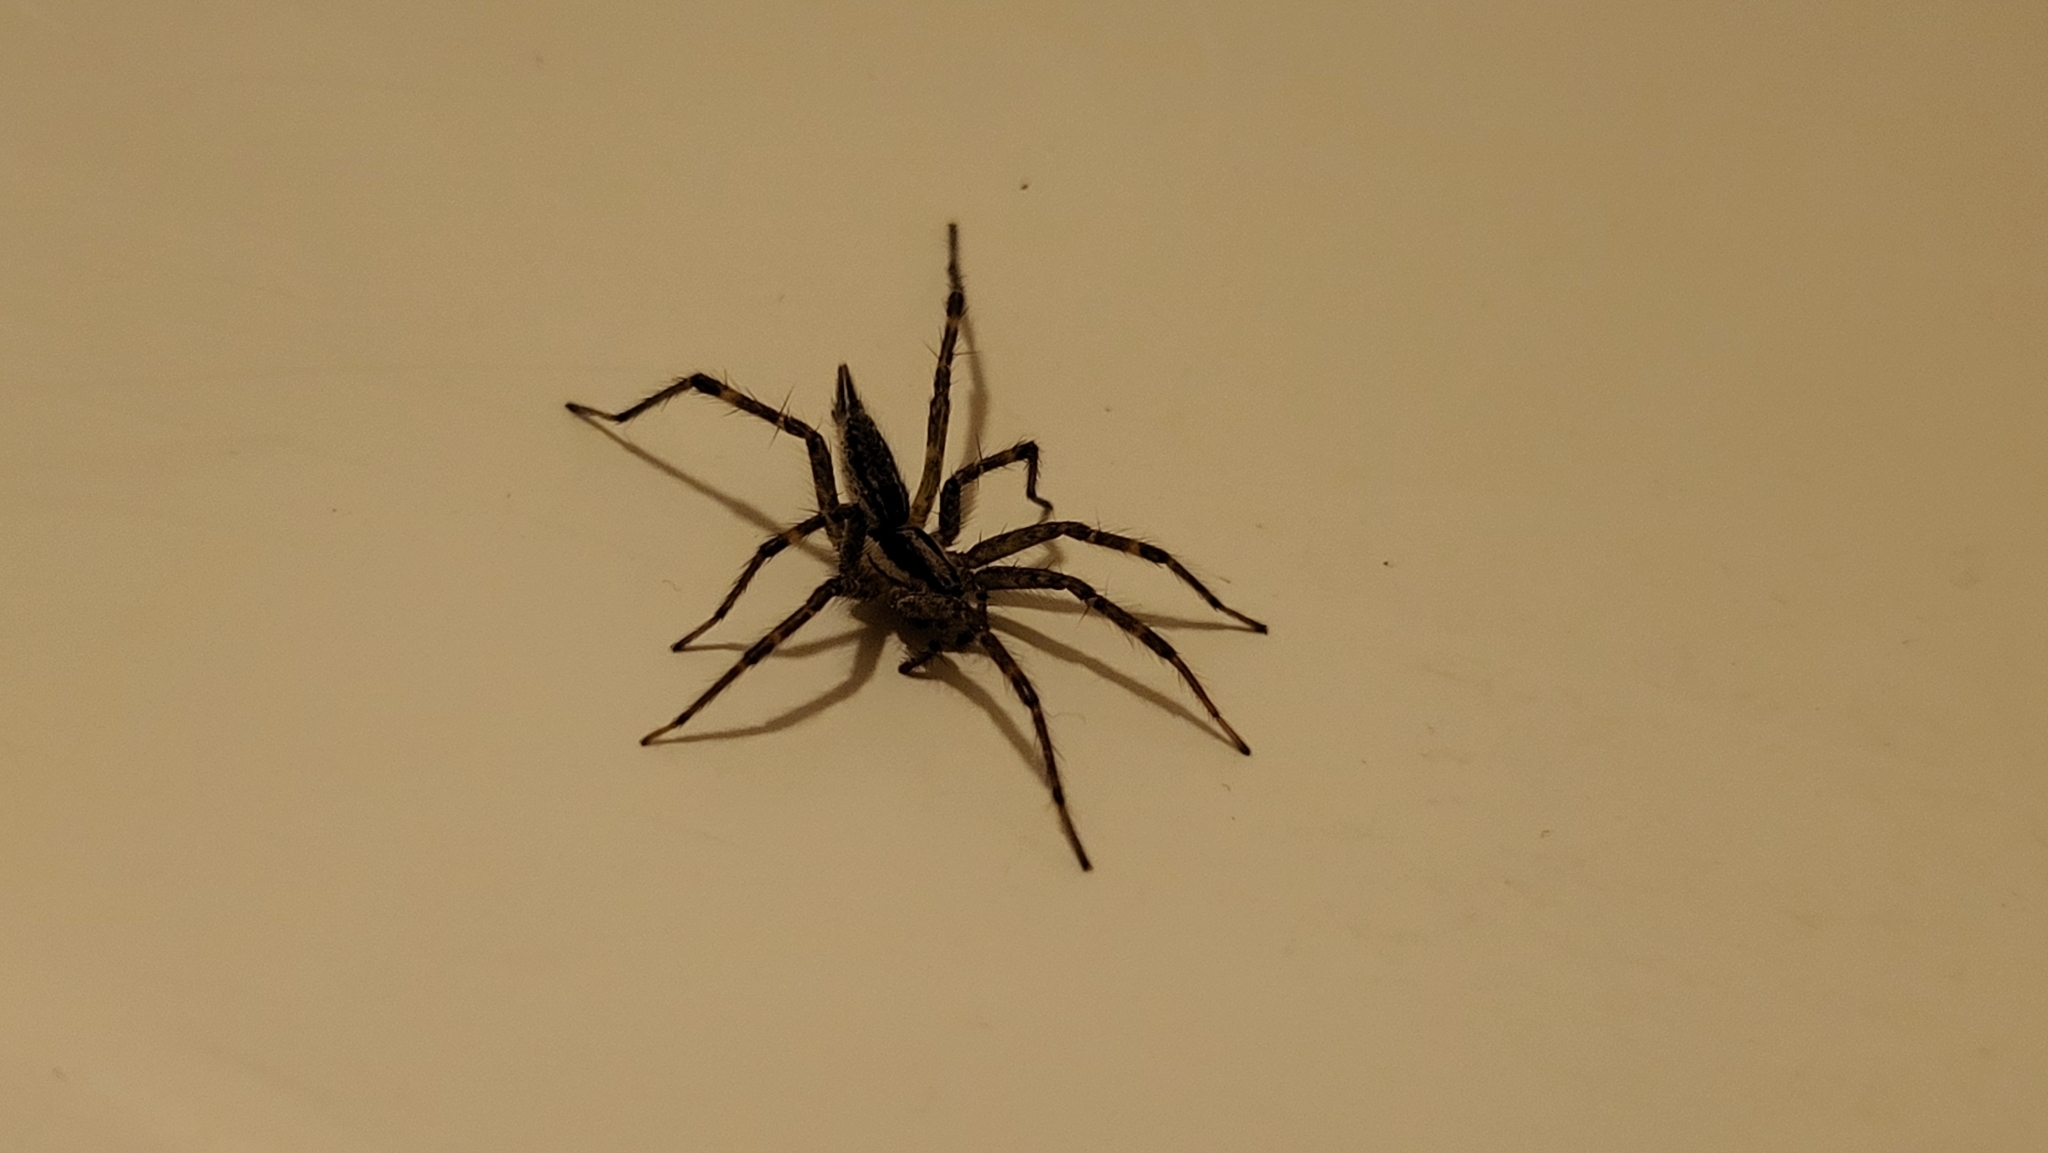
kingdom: Animalia
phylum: Arthropoda
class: Arachnida
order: Araneae
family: Agelenidae
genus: Agelenopsis
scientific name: Agelenopsis
